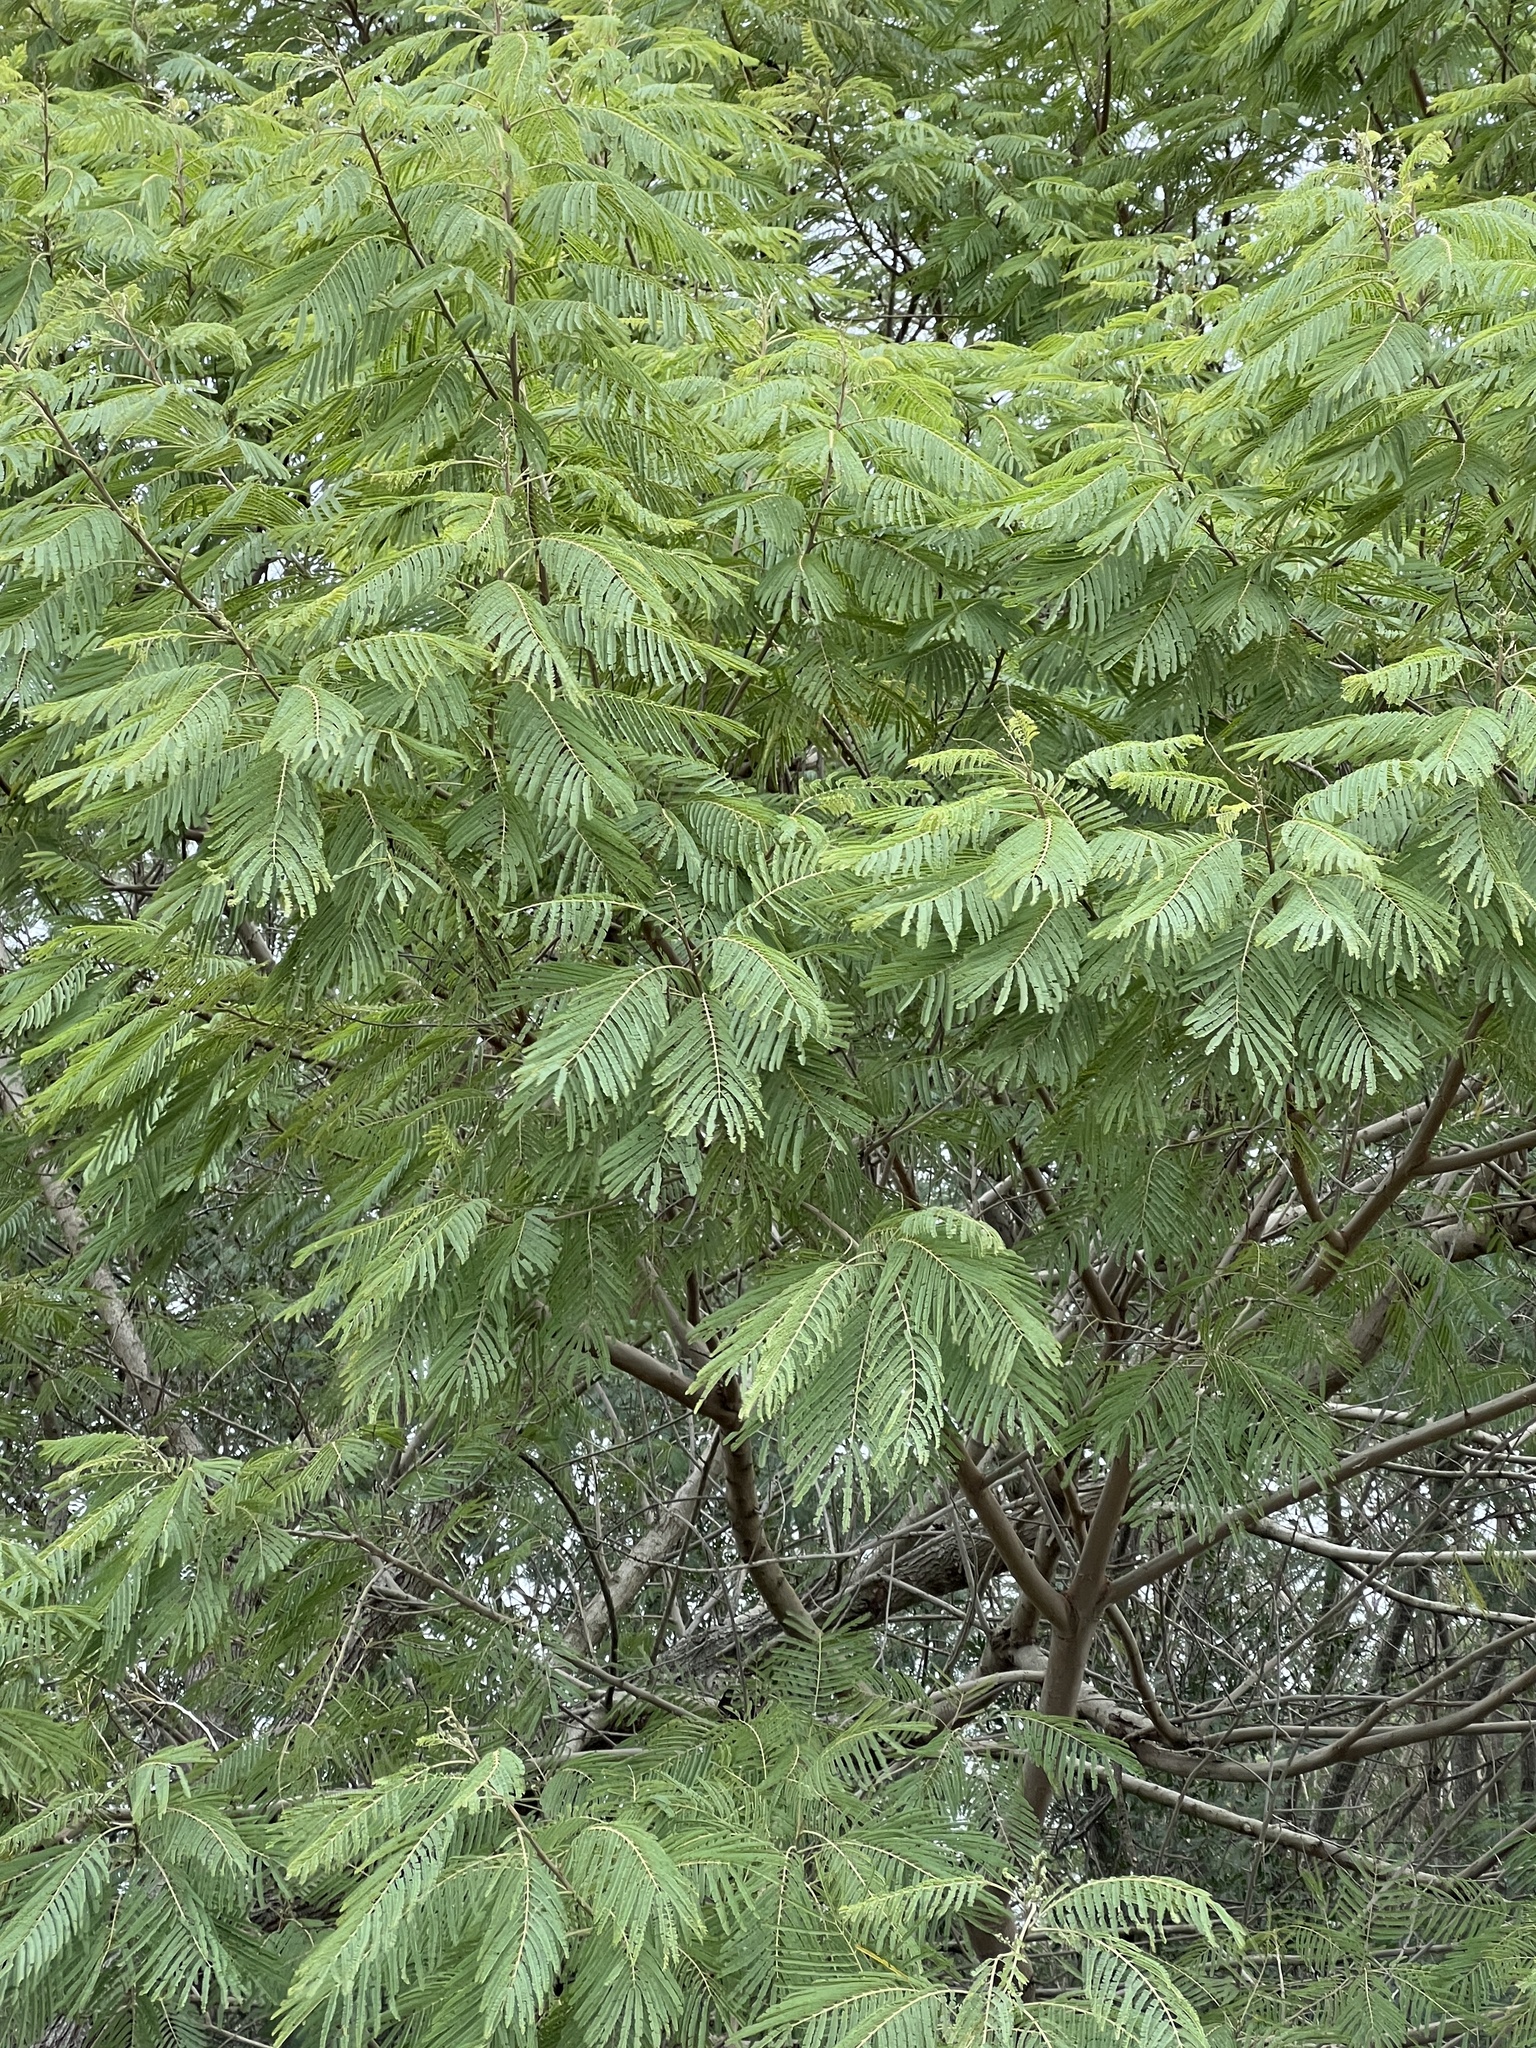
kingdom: Plantae
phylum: Tracheophyta
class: Magnoliopsida
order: Fabales
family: Fabaceae
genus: Leucaena
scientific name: Leucaena pulverulenta
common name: Great leadtree
